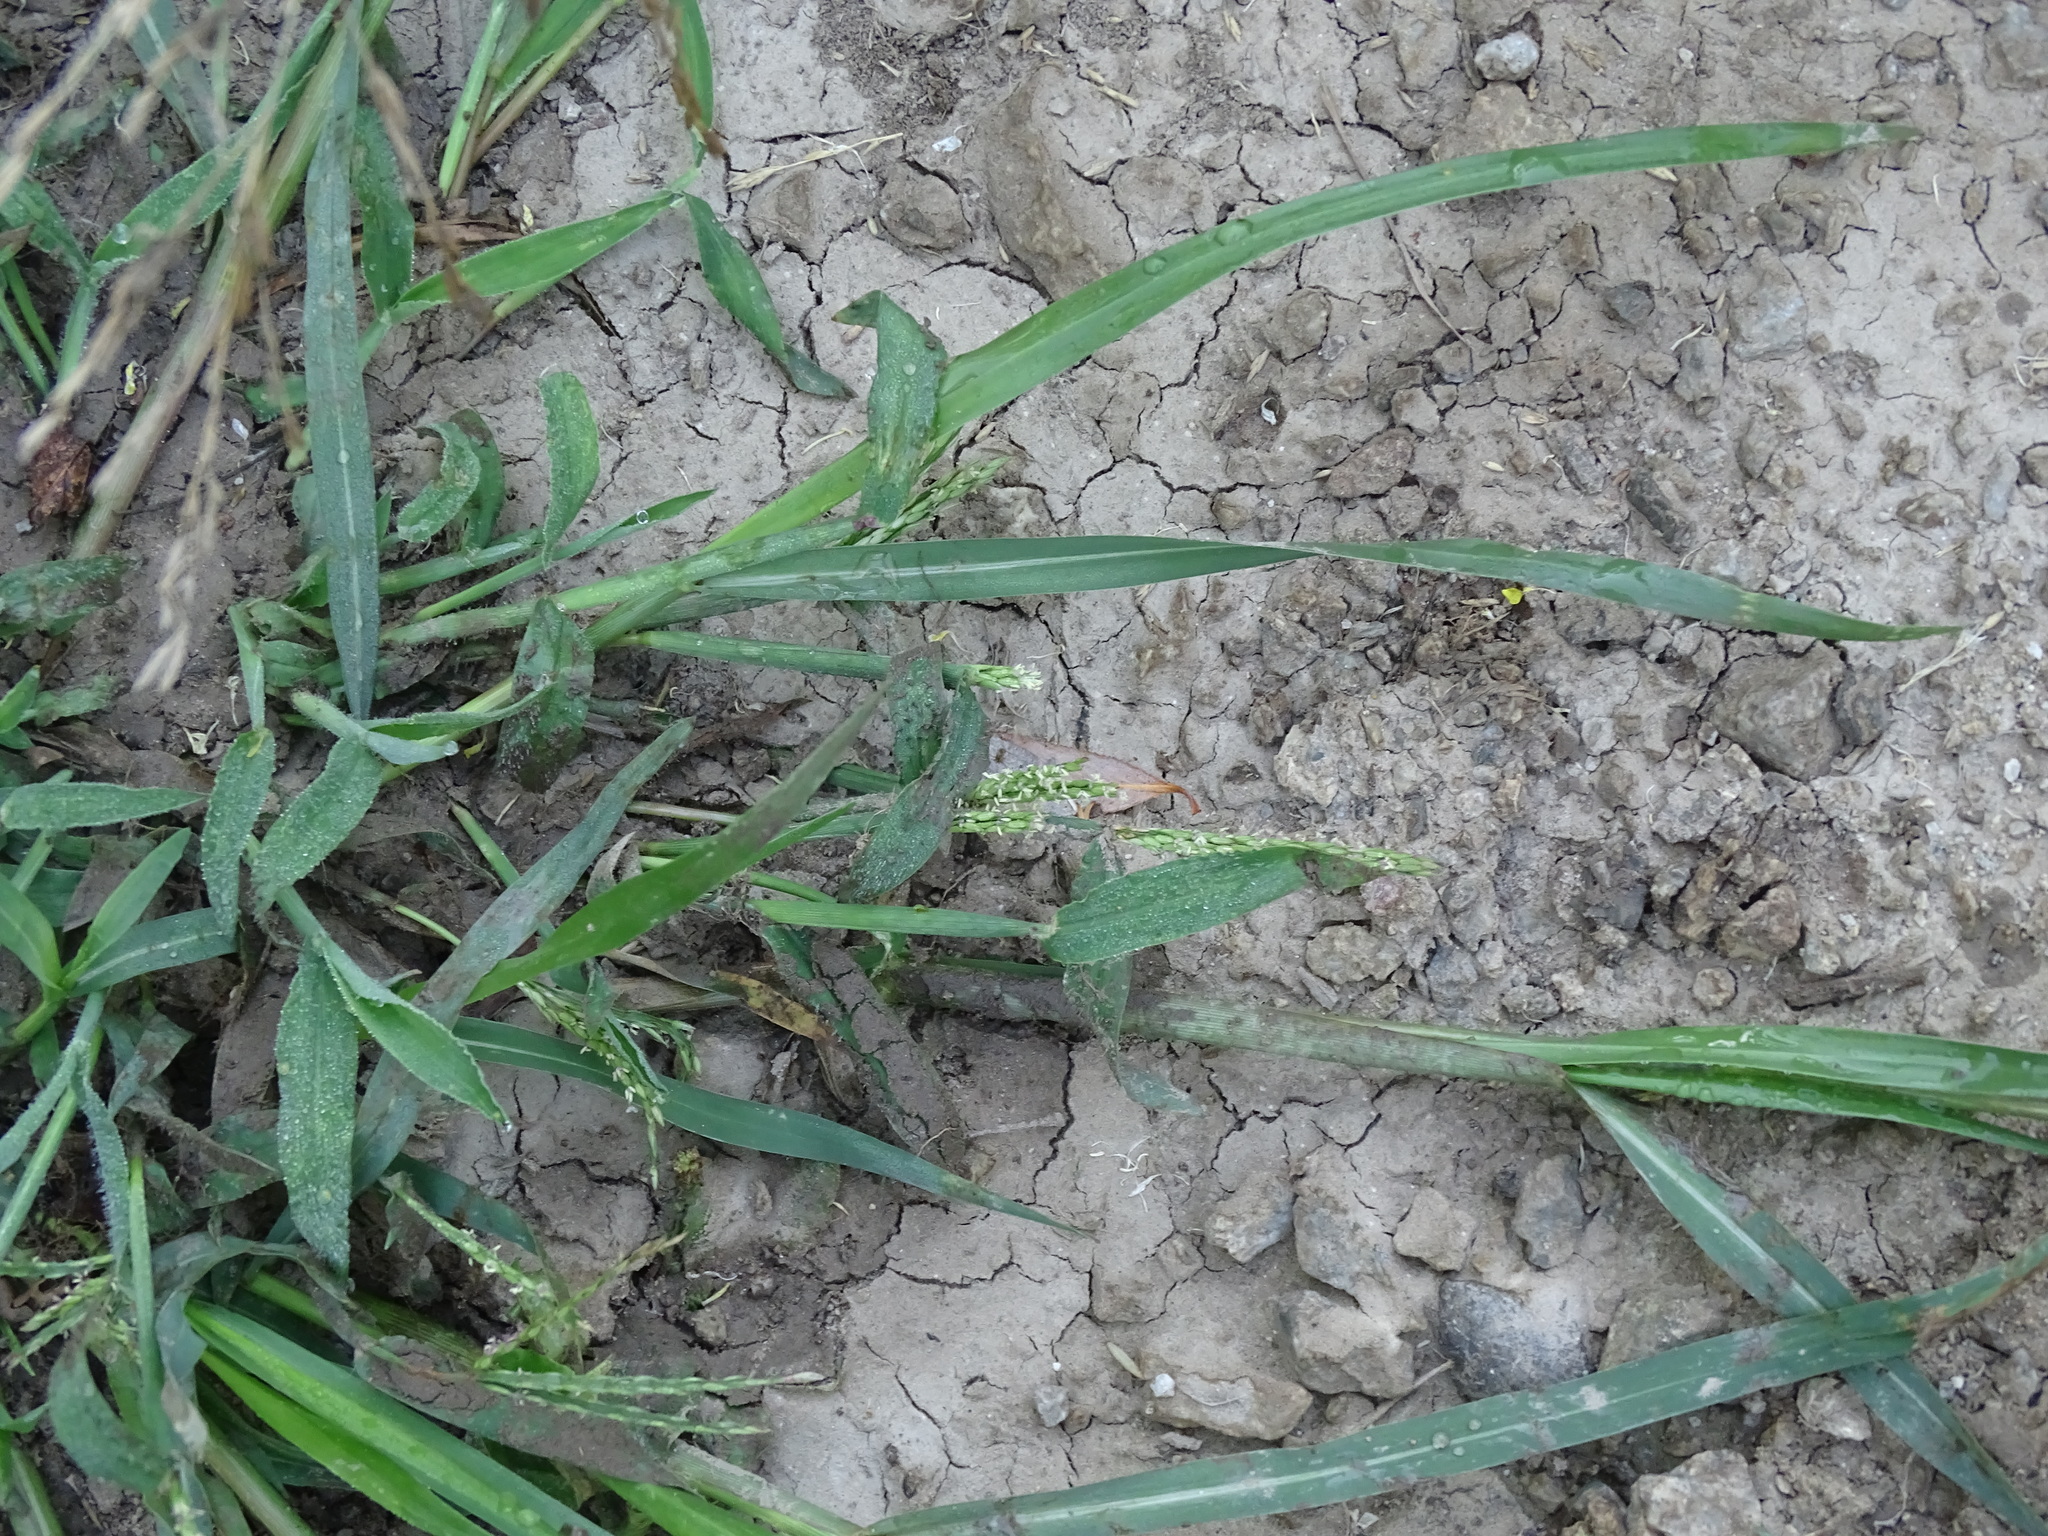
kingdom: Plantae
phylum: Tracheophyta
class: Liliopsida
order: Poales
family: Poaceae
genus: Digitaria
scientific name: Digitaria ischaemum
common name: Smooth crabgrass
